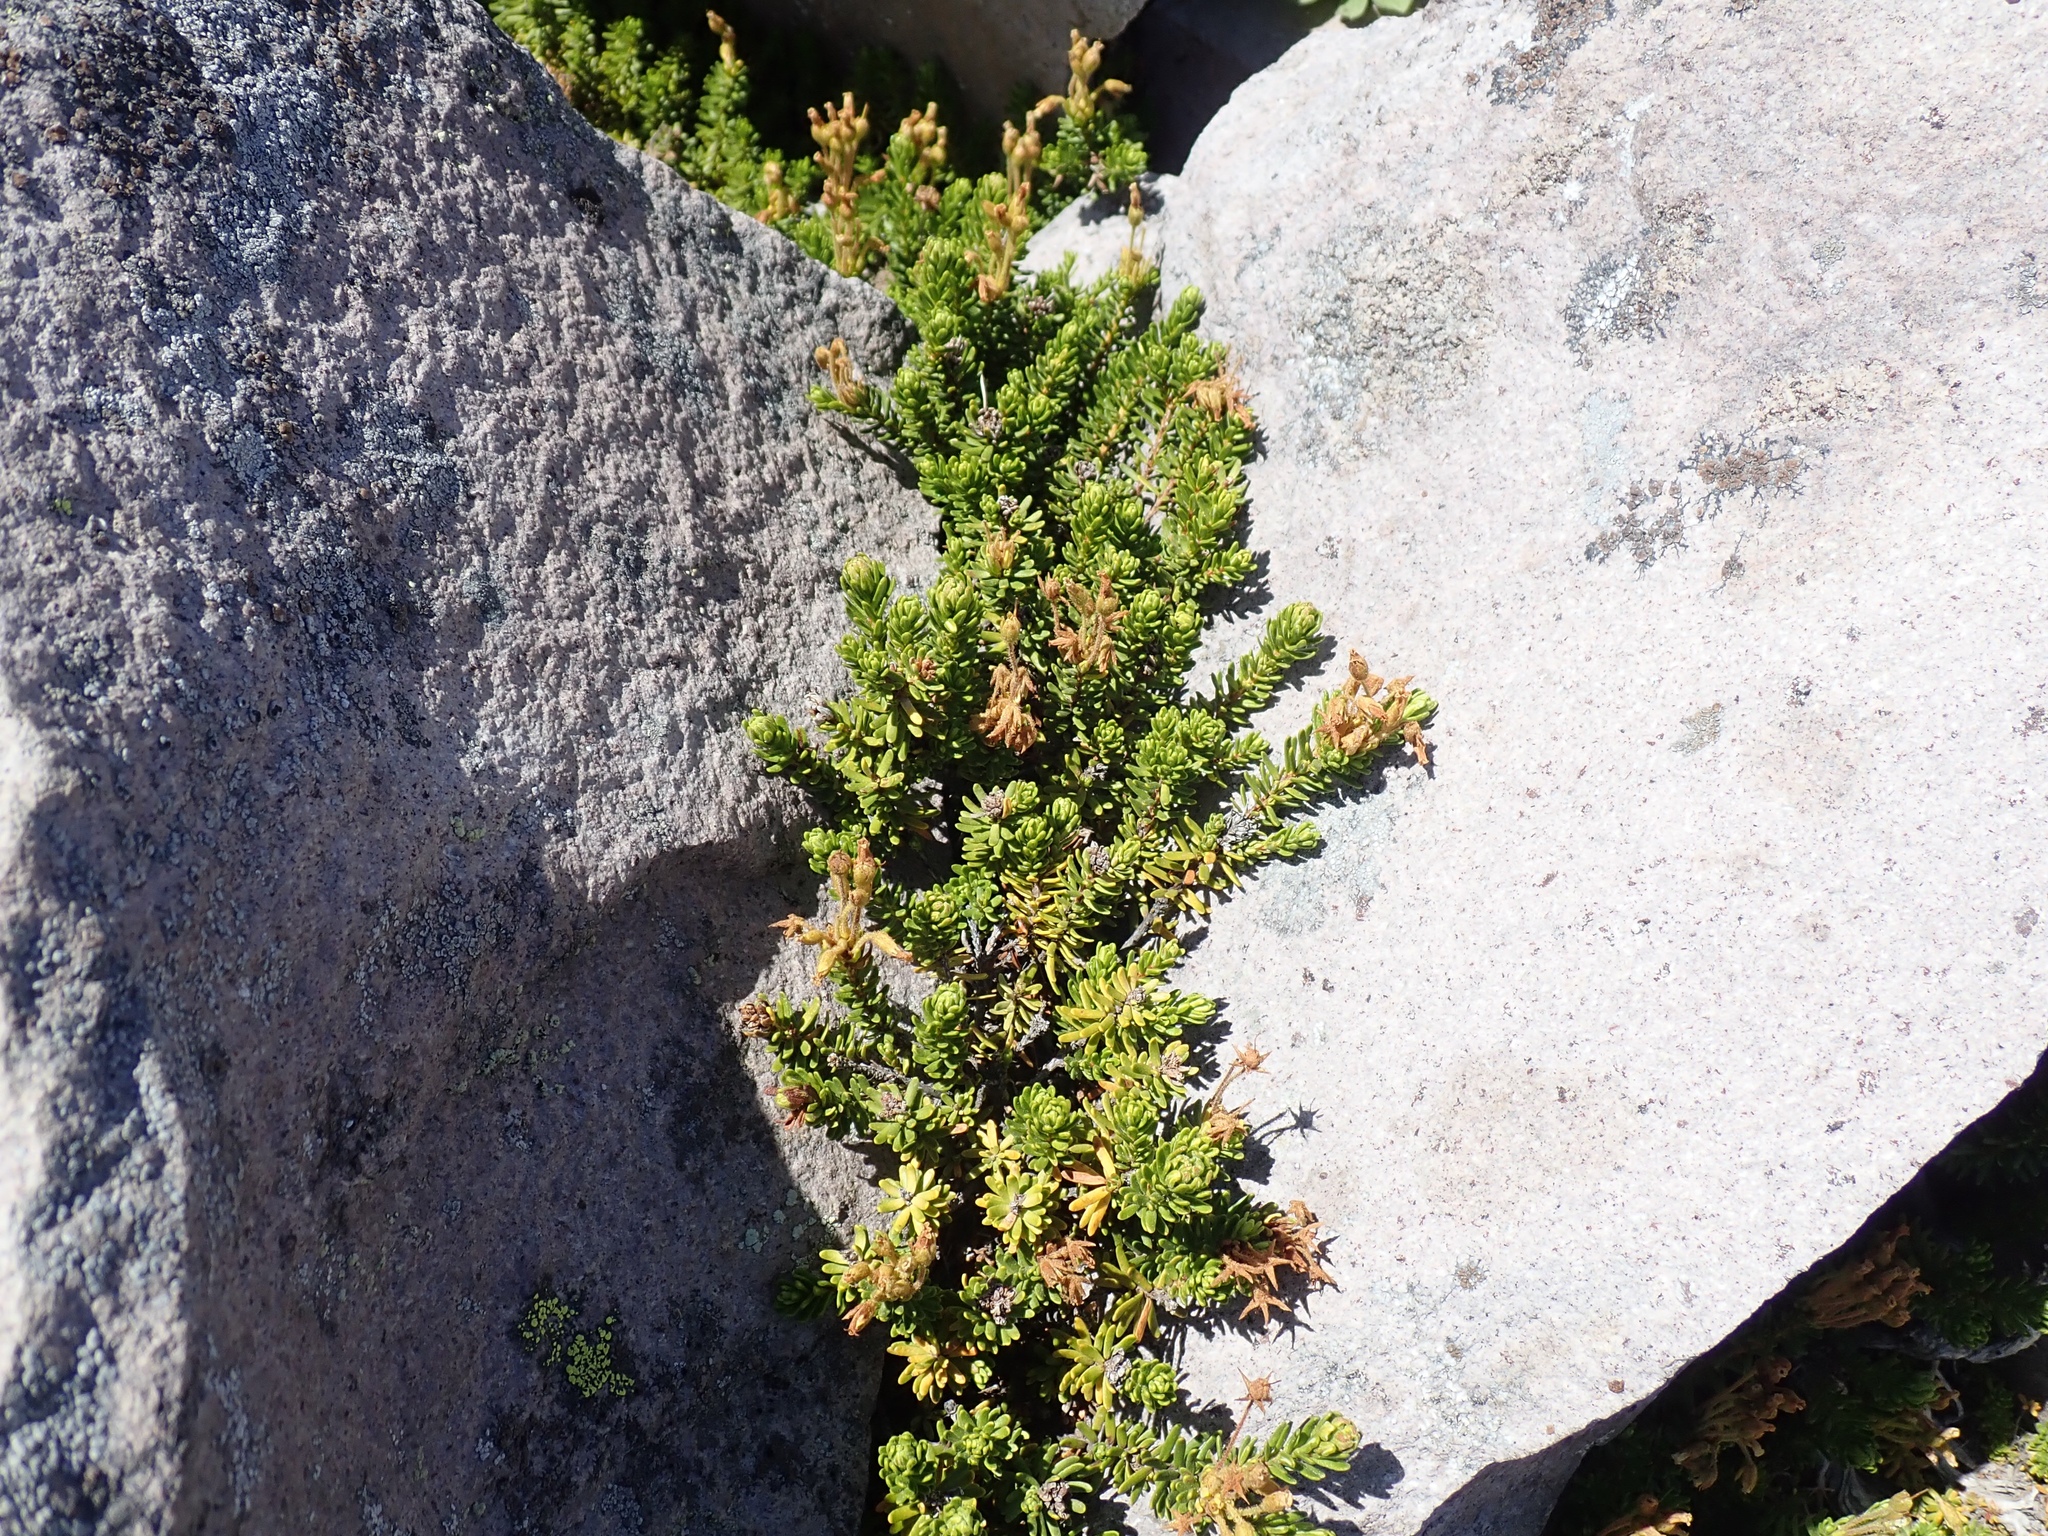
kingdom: Plantae
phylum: Tracheophyta
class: Magnoliopsida
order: Ericales
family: Ericaceae
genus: Phyllodoce
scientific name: Phyllodoce glanduliflora
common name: Cream mountain heather
